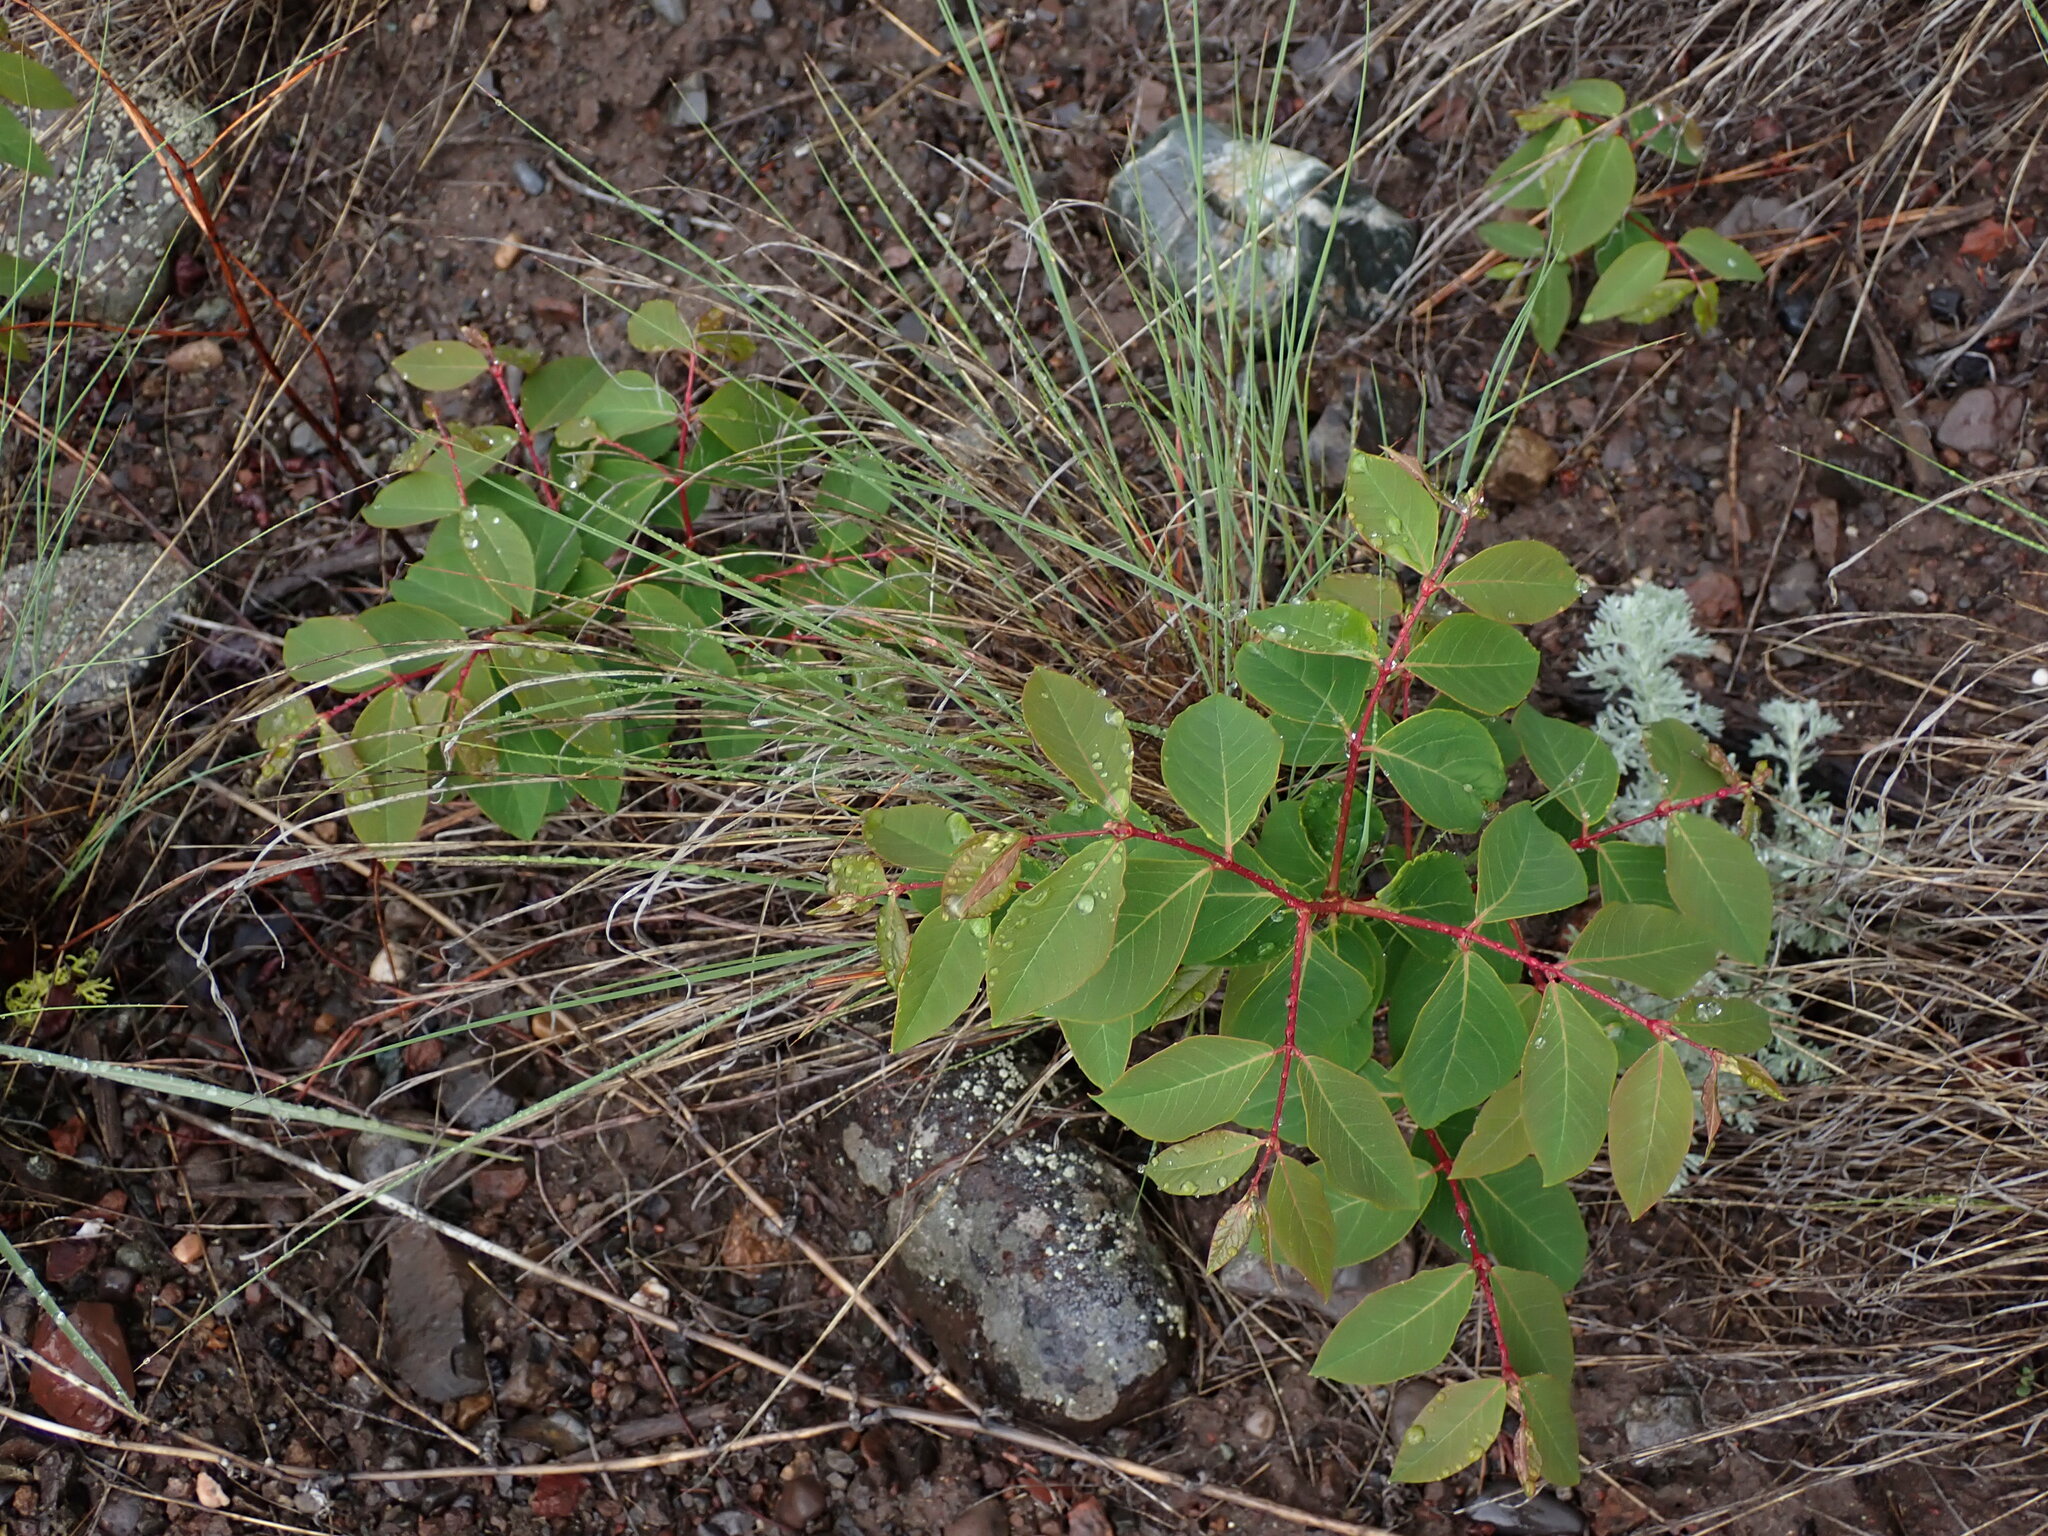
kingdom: Plantae
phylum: Tracheophyta
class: Magnoliopsida
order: Gentianales
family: Apocynaceae
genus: Apocynum
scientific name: Apocynum androsaemifolium
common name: Spreading dogbane
